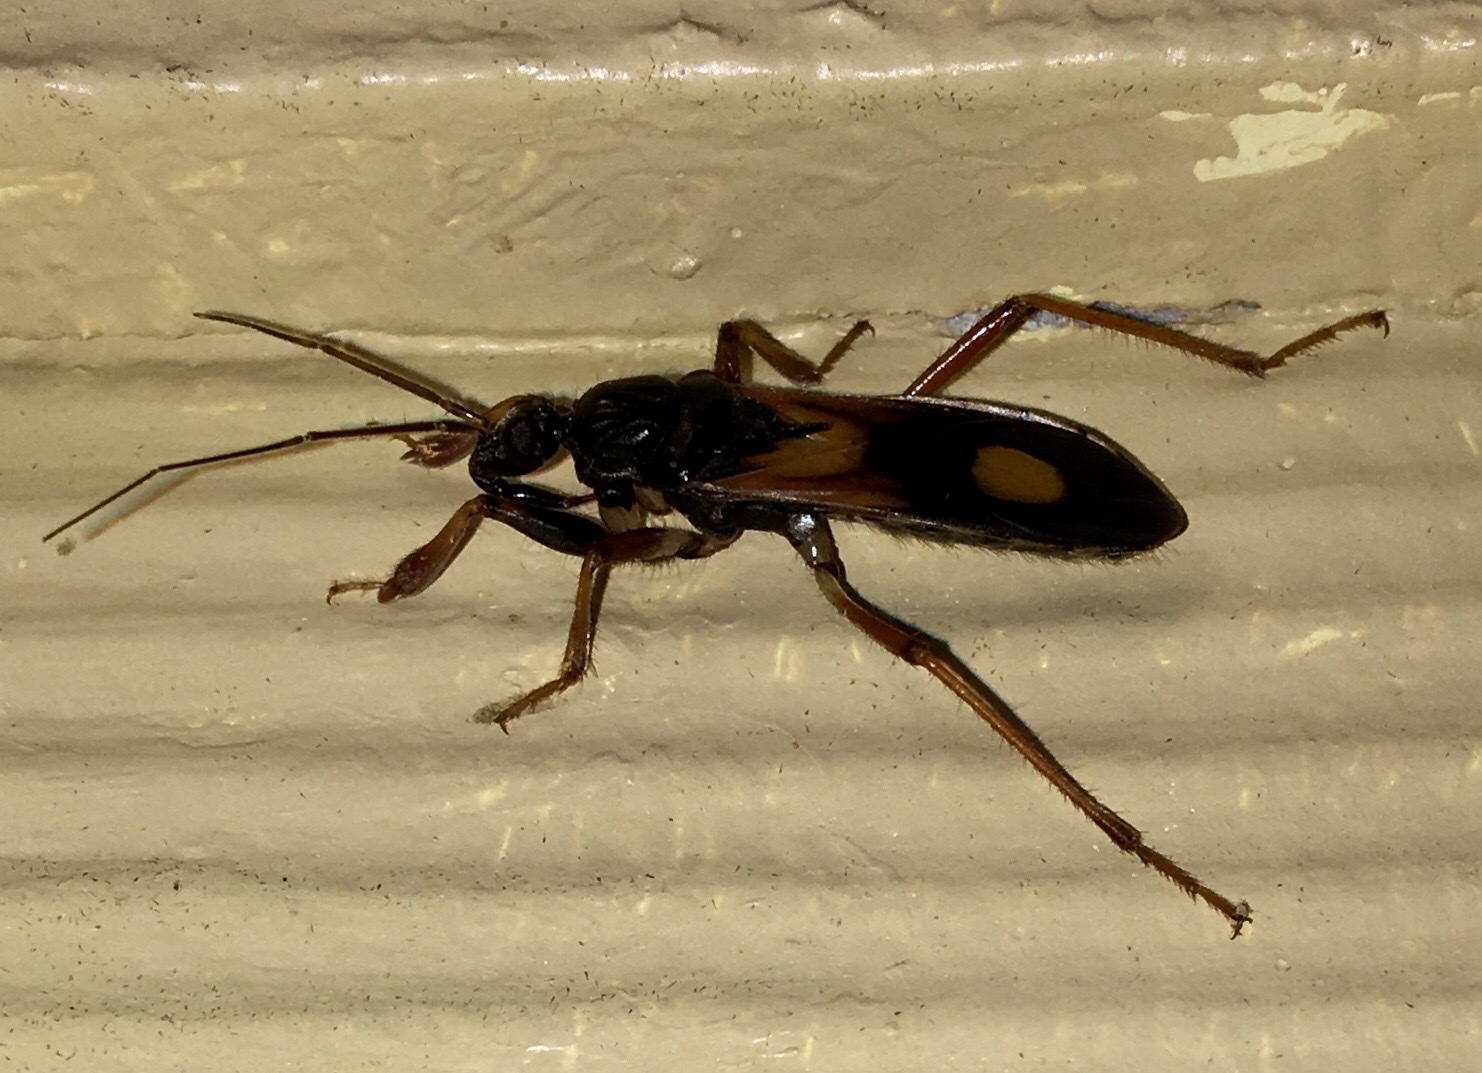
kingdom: Animalia
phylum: Arthropoda
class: Insecta
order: Hemiptera
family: Reduviidae
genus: Rasahus
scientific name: Rasahus biguttatus
